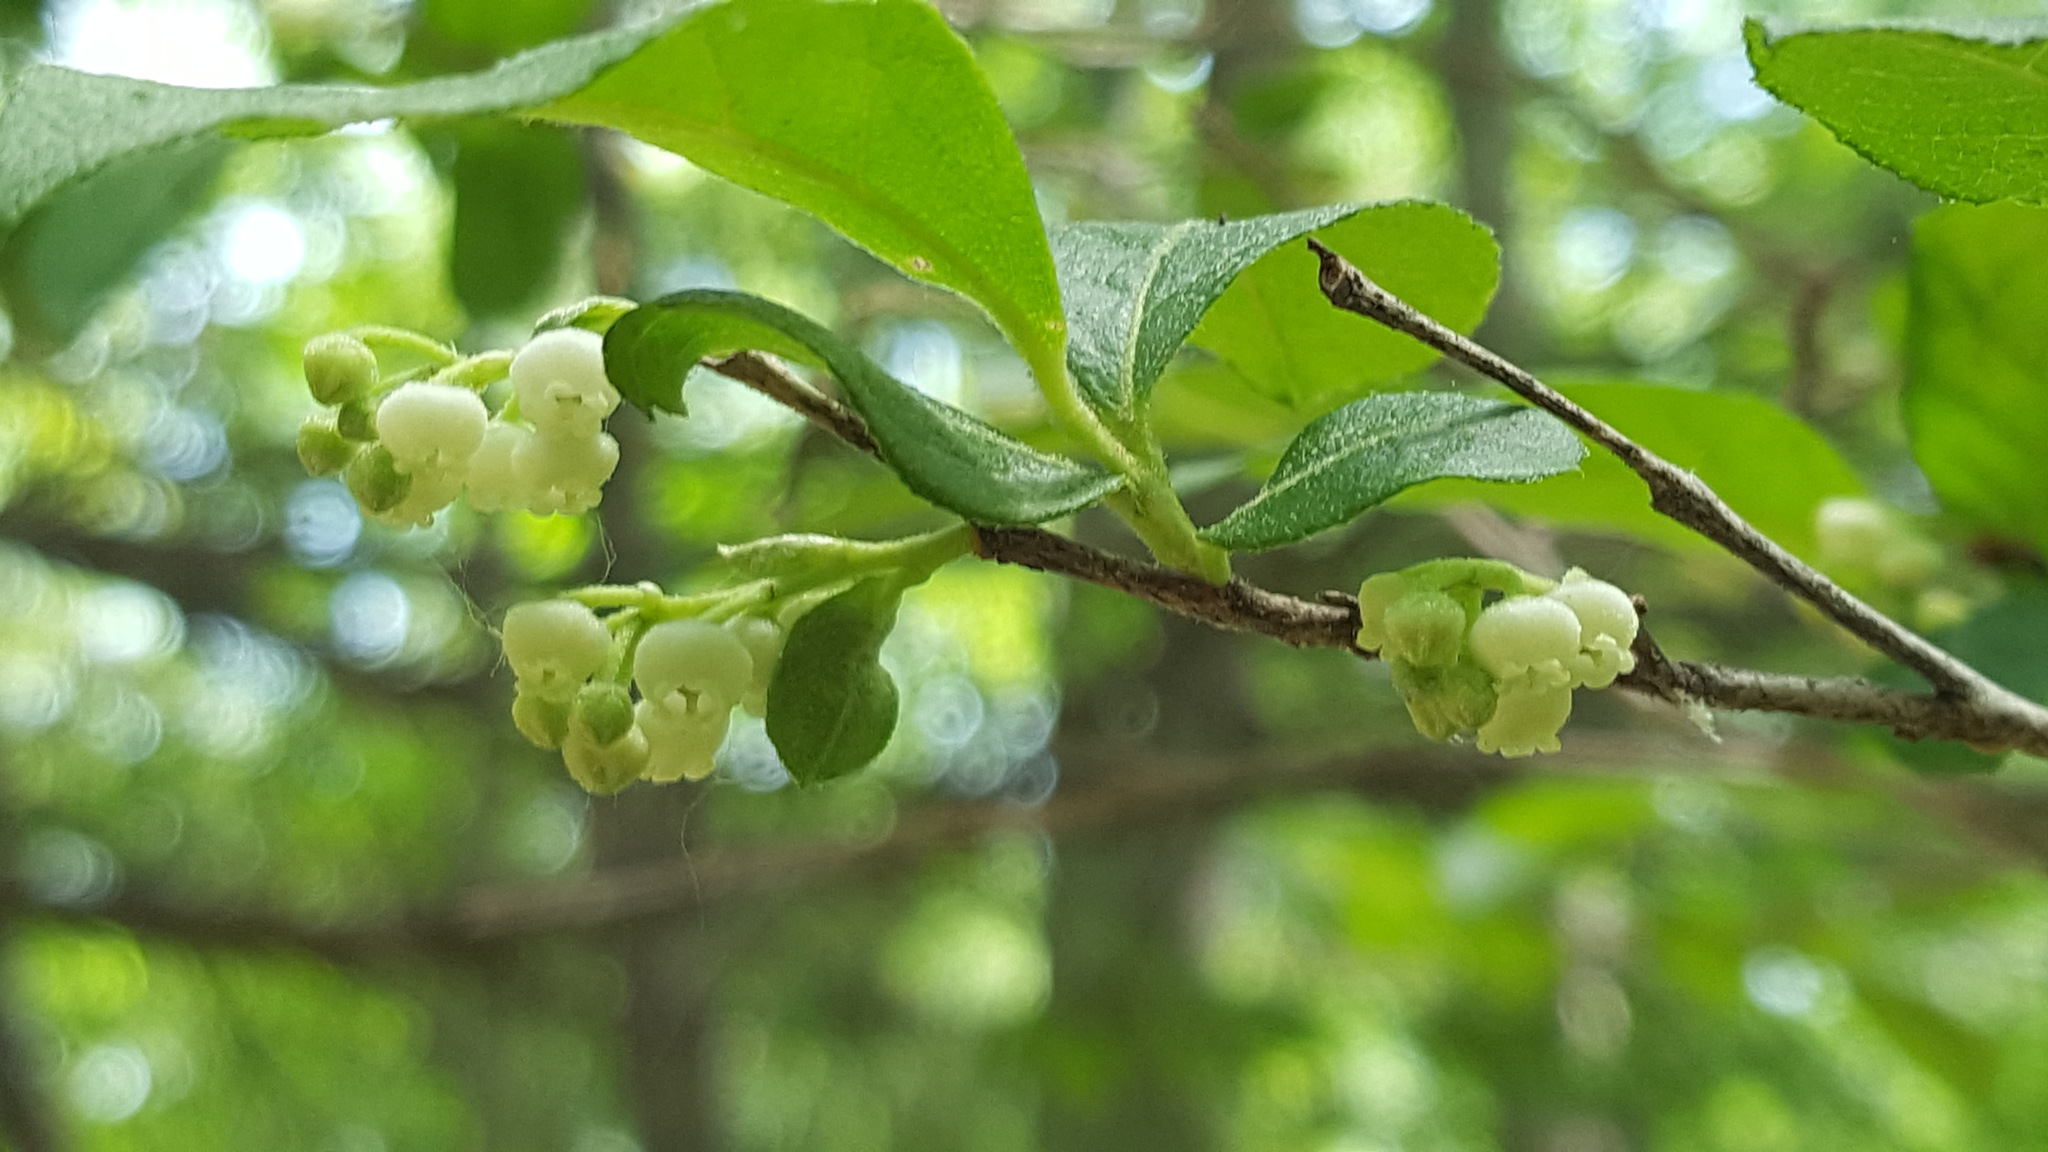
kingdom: Plantae
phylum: Tracheophyta
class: Magnoliopsida
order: Ericales
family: Ericaceae
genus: Lyonia
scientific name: Lyonia ligustrina
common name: Maleberry
